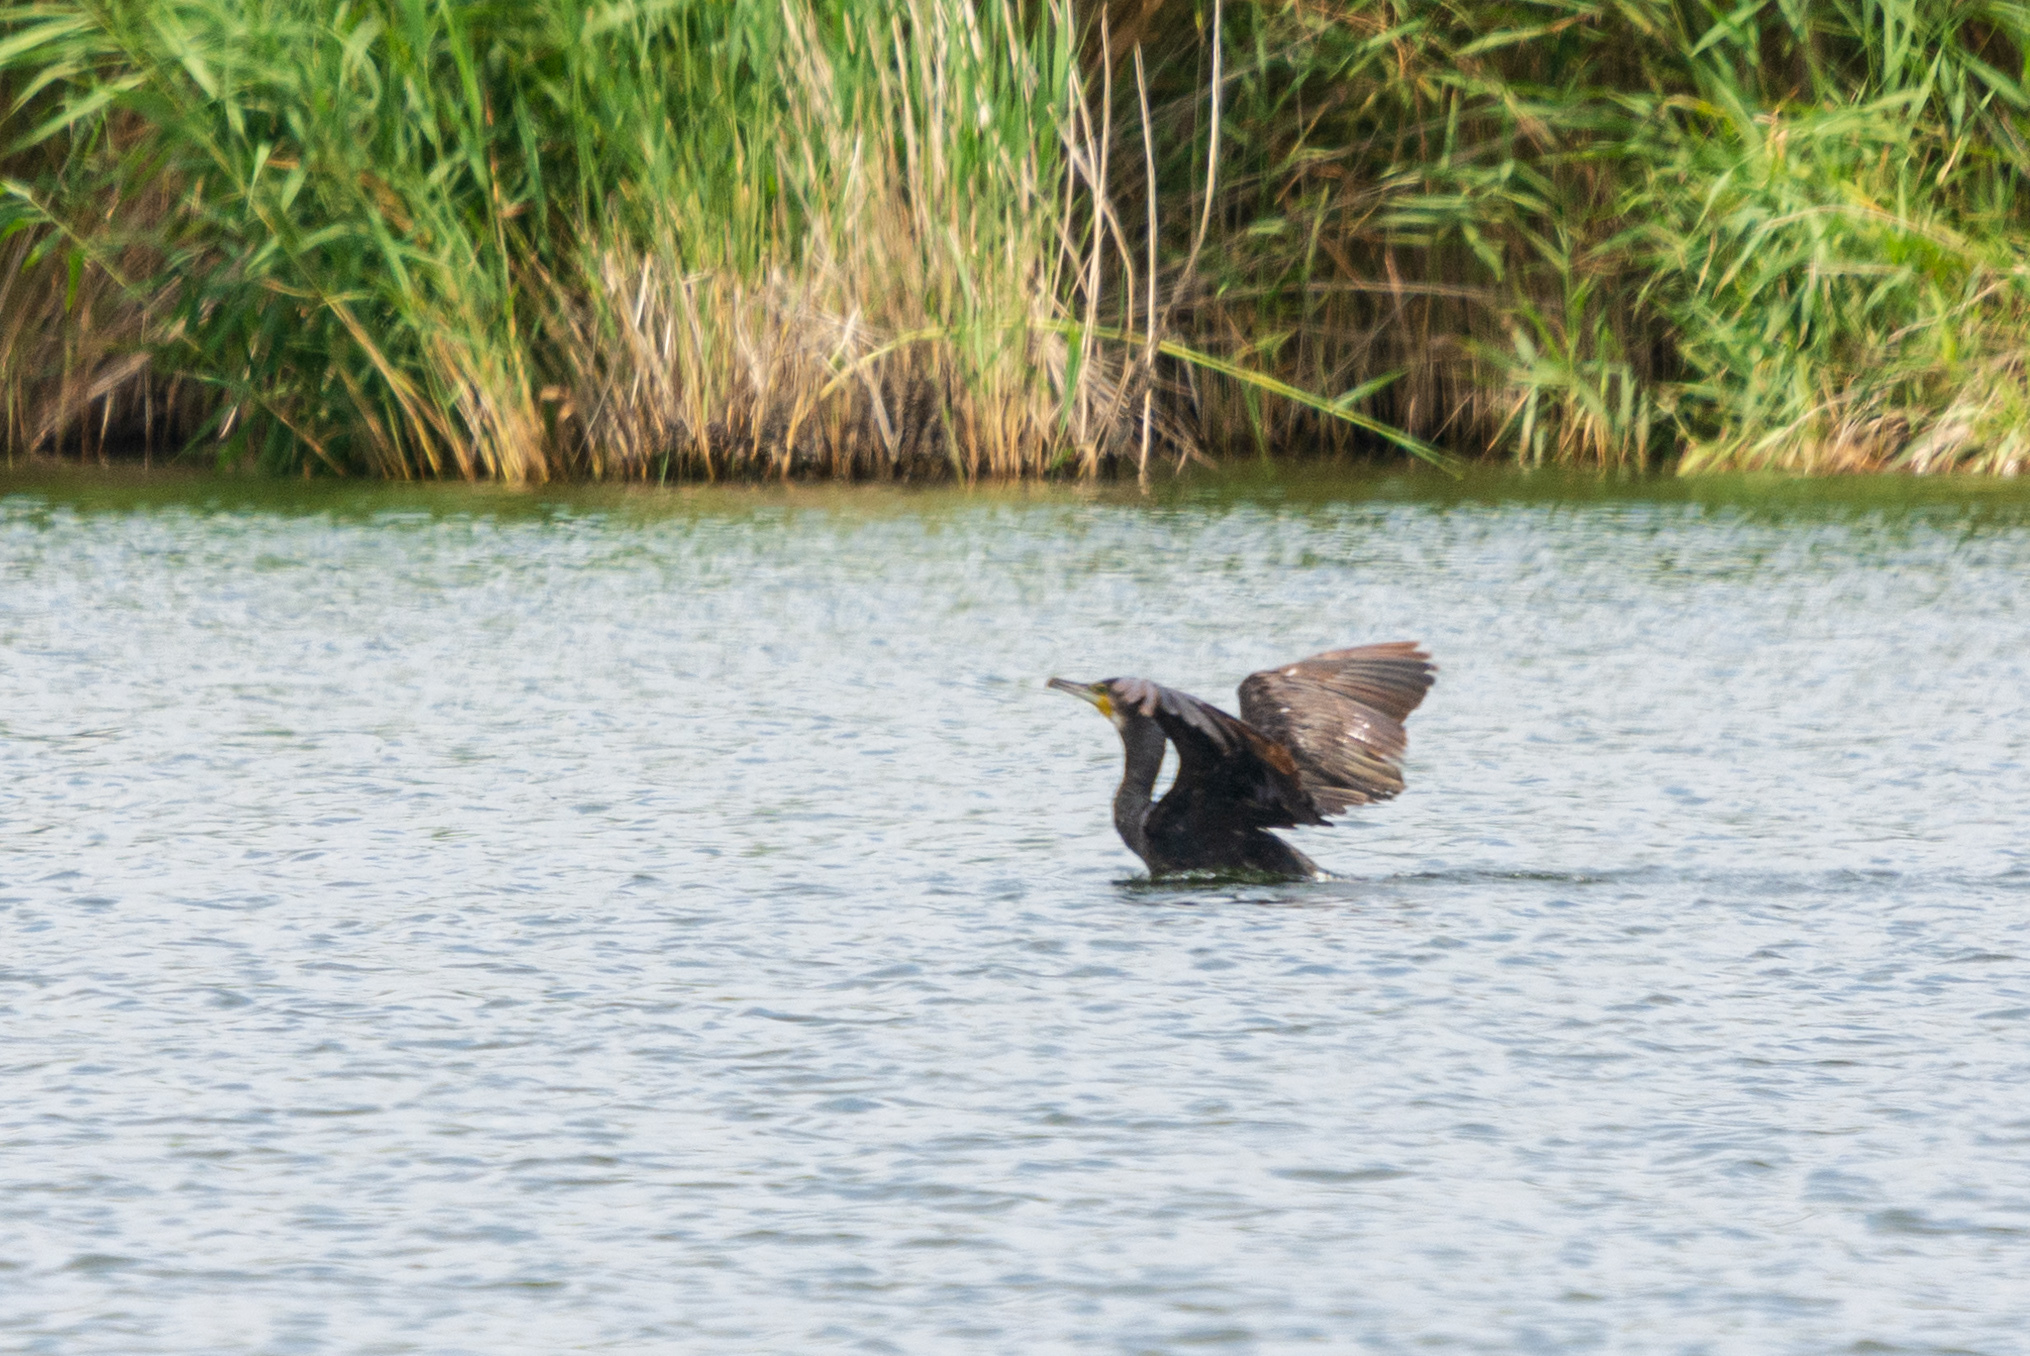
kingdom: Animalia
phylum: Chordata
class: Aves
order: Suliformes
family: Phalacrocoracidae
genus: Phalacrocorax
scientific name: Phalacrocorax carbo
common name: Great cormorant
